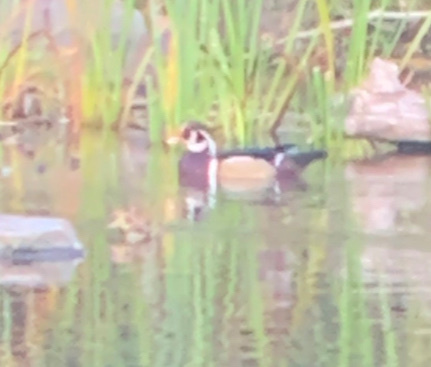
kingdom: Animalia
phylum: Chordata
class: Aves
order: Anseriformes
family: Anatidae
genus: Aix
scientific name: Aix sponsa
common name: Wood duck
